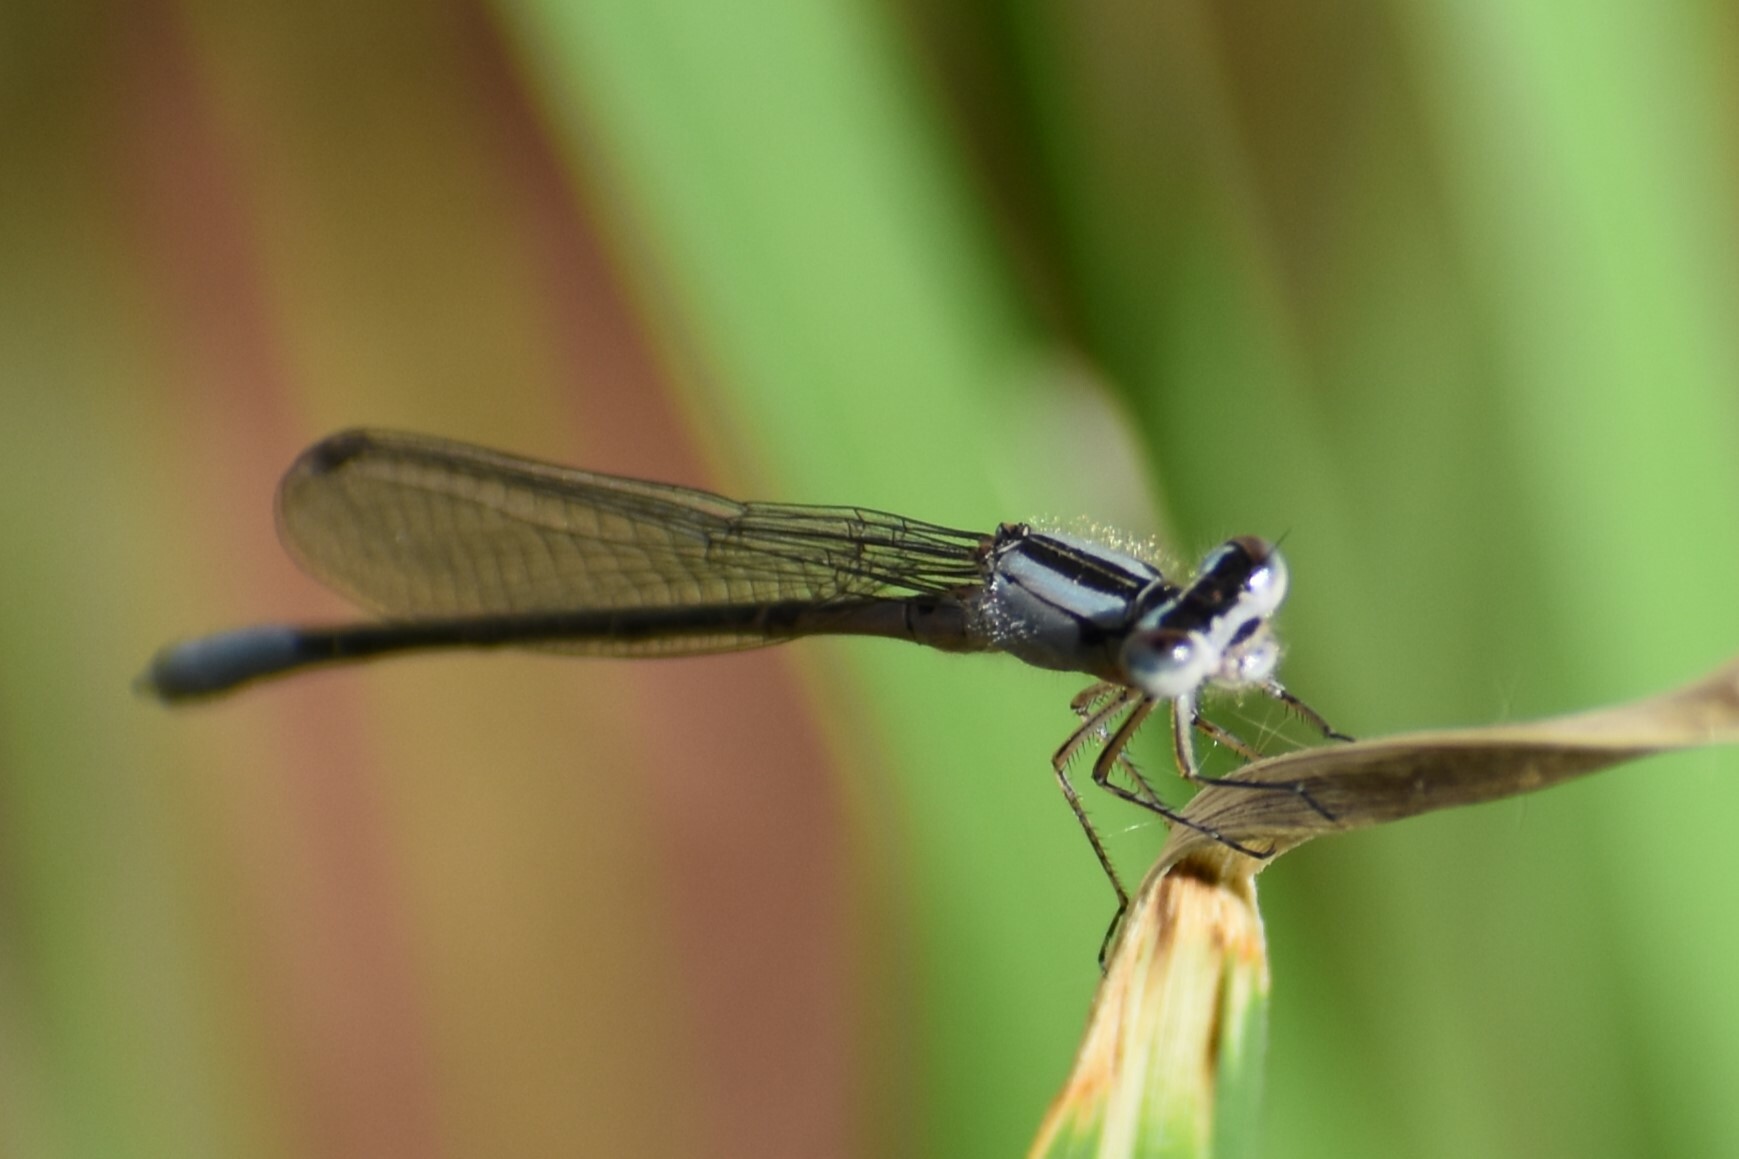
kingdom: Animalia
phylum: Arthropoda
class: Insecta
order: Odonata
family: Coenagrionidae
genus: Enallagma
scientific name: Enallagma aspersum
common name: Azure bluet
